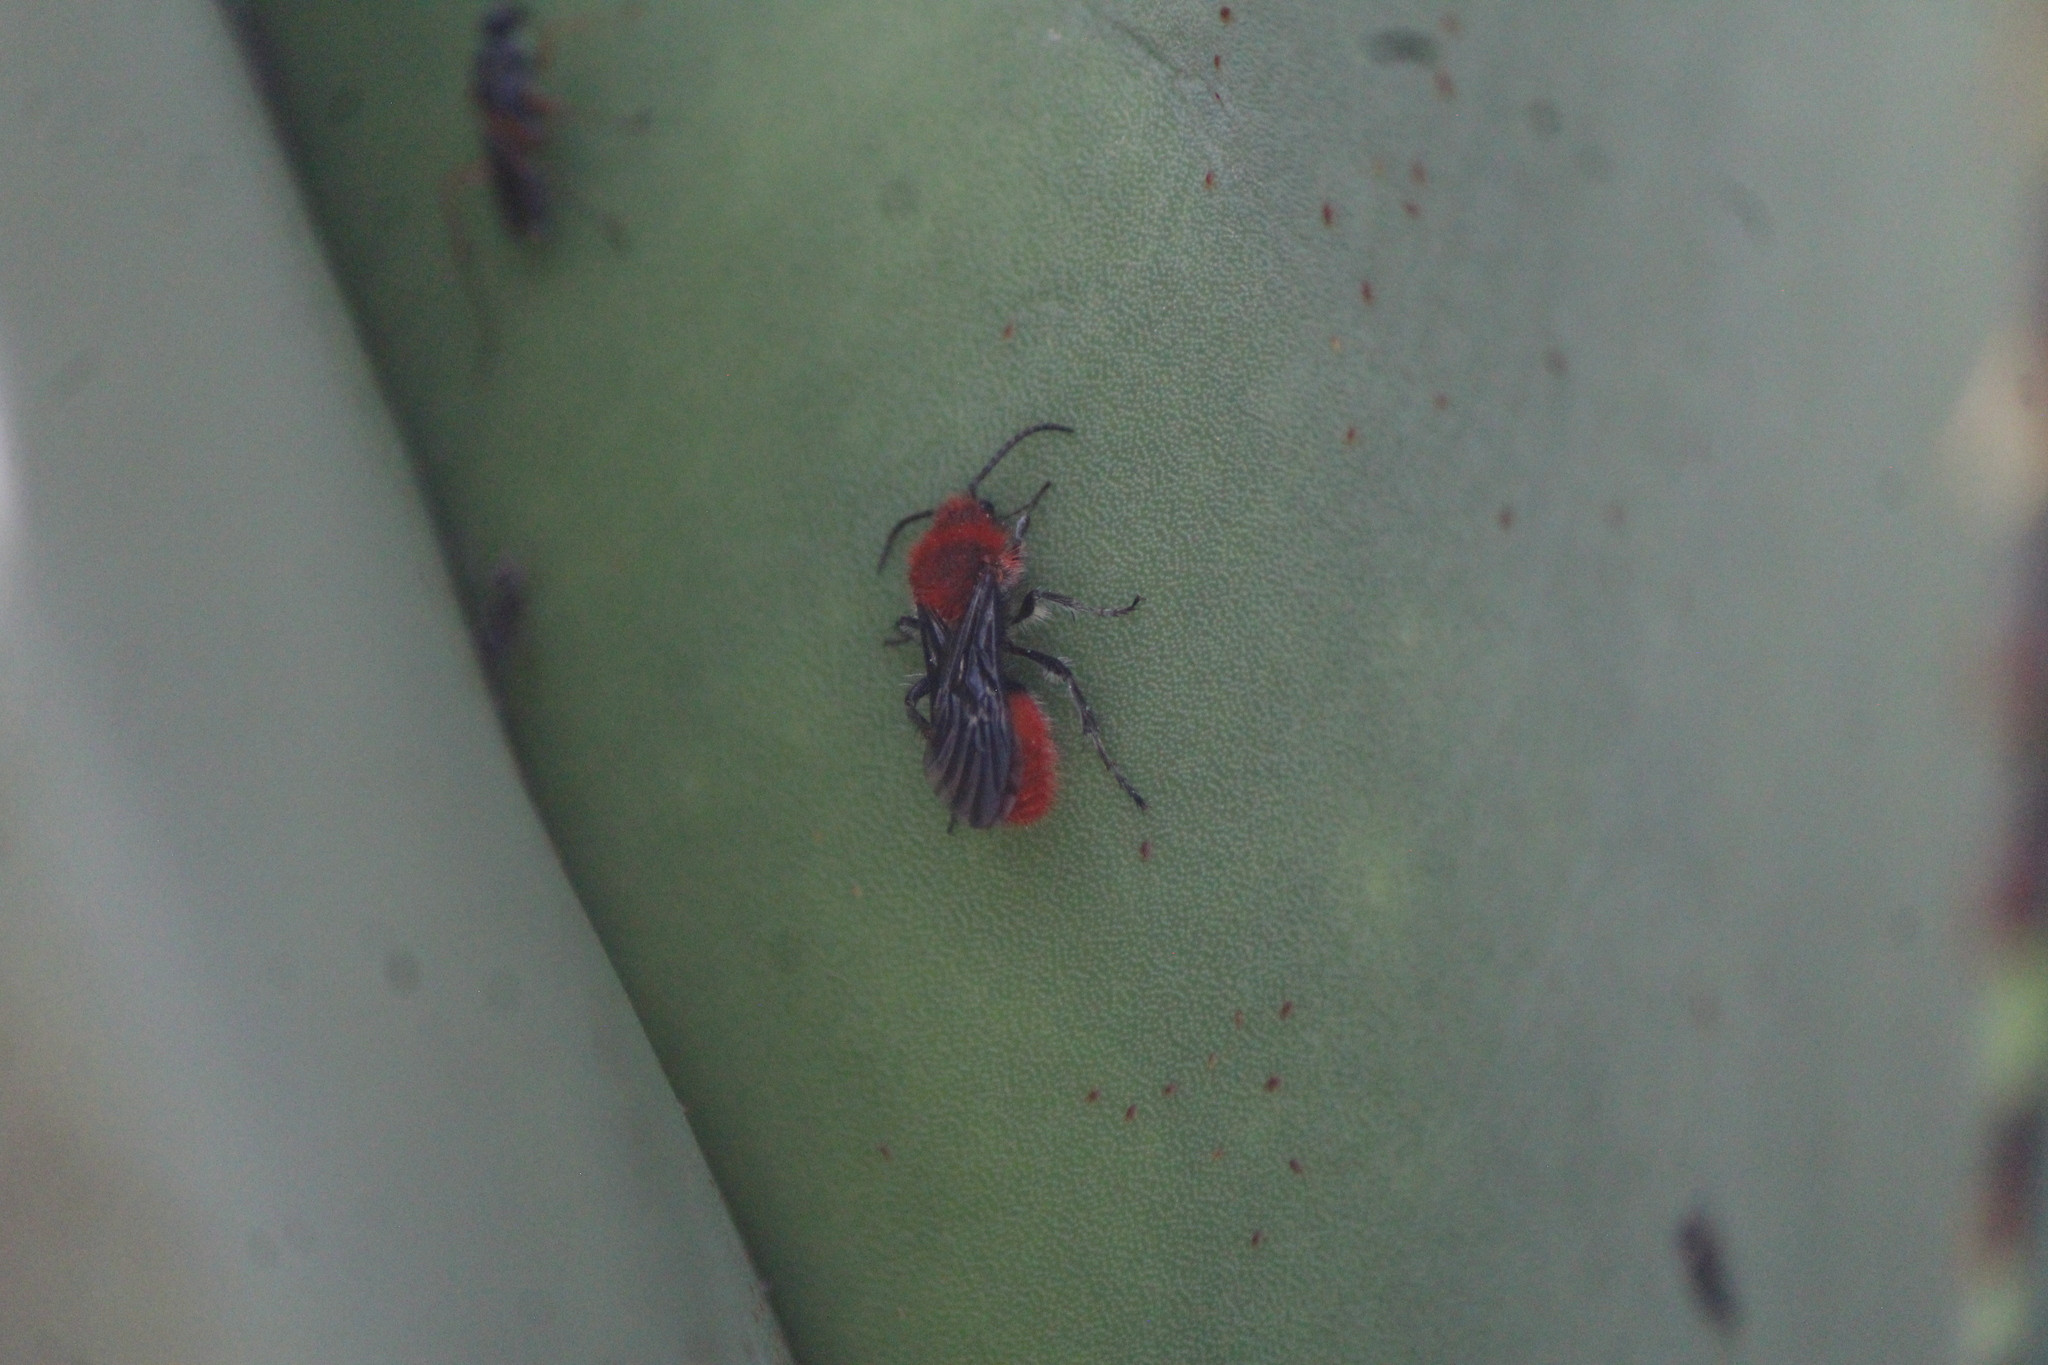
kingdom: Animalia
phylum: Arthropoda
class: Insecta
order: Hymenoptera
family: Mutillidae
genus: Dasymutilla
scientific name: Dasymutilla
